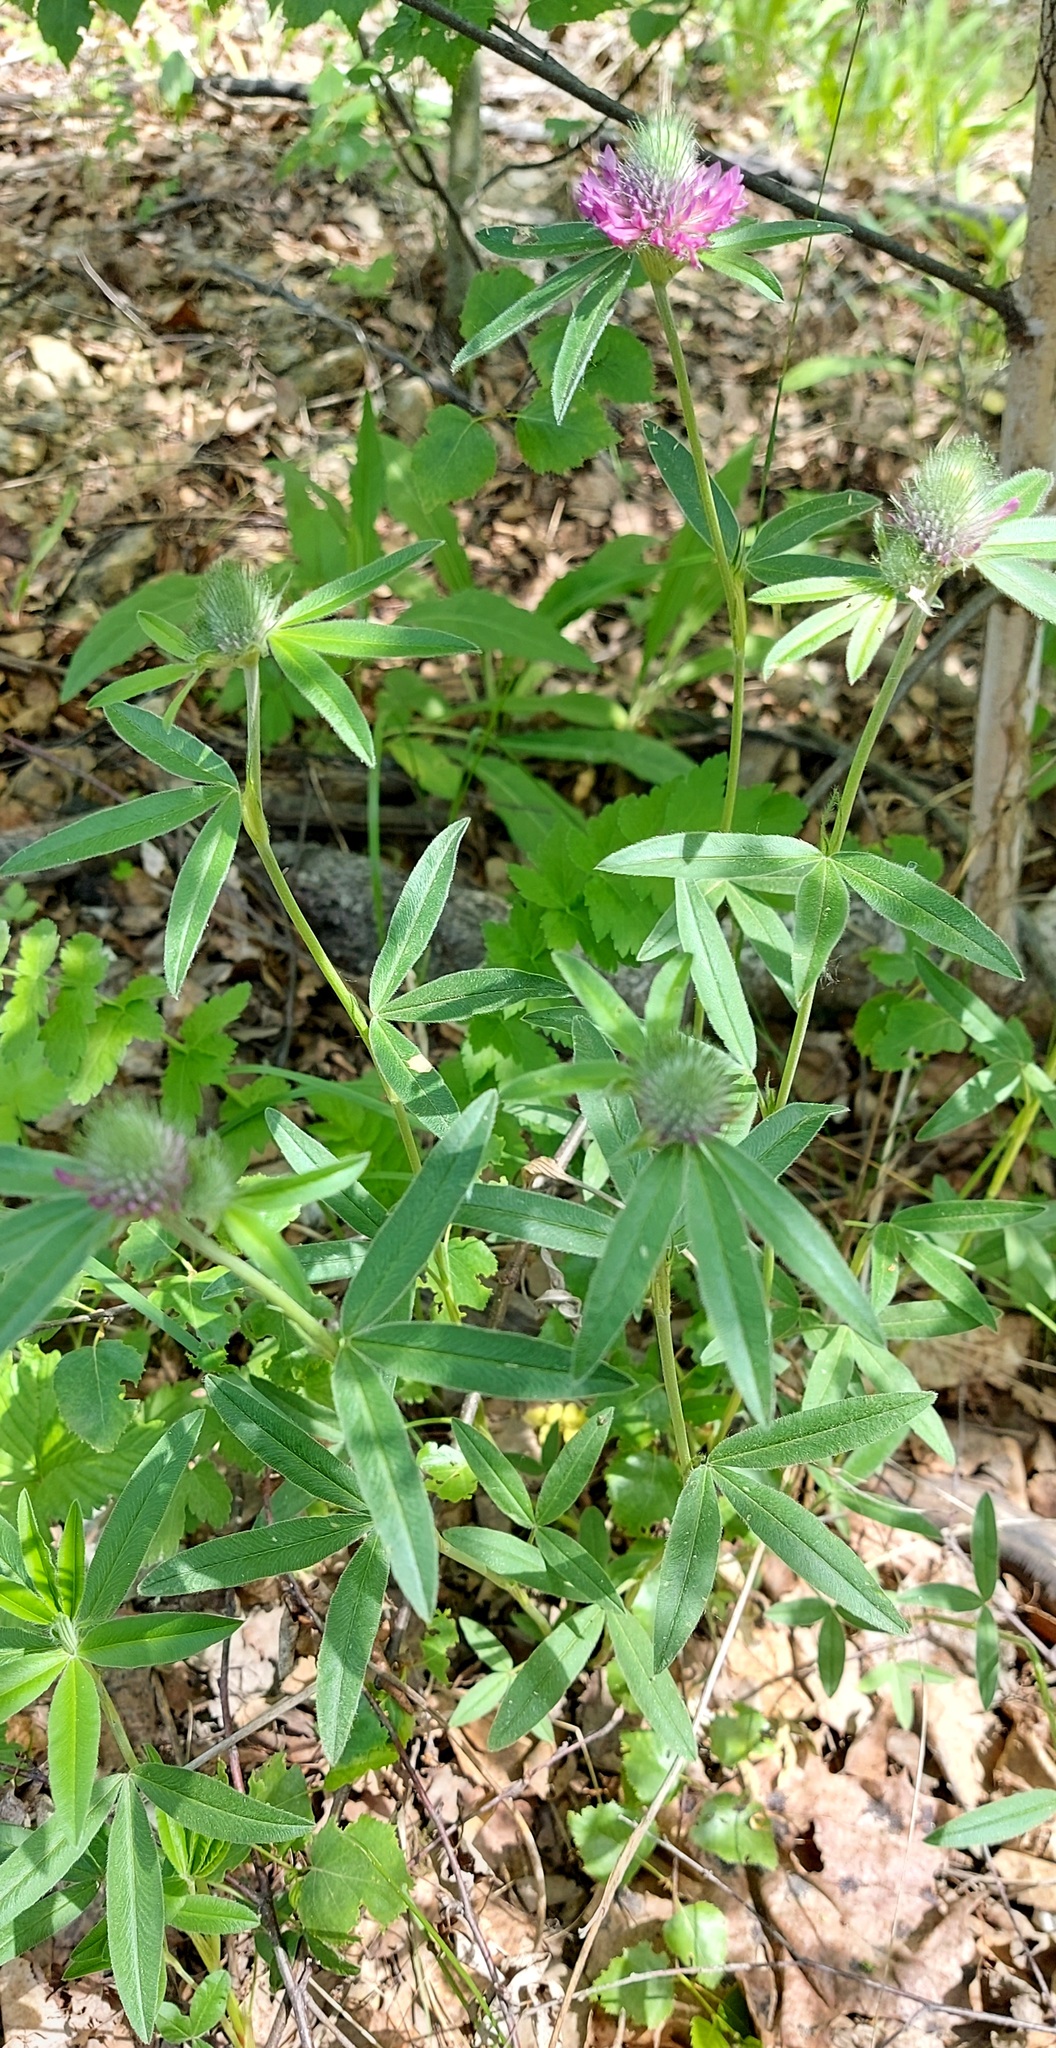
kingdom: Plantae
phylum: Tracheophyta
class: Magnoliopsida
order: Fabales
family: Fabaceae
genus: Trifolium
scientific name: Trifolium alpestre
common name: Owl-head clover
